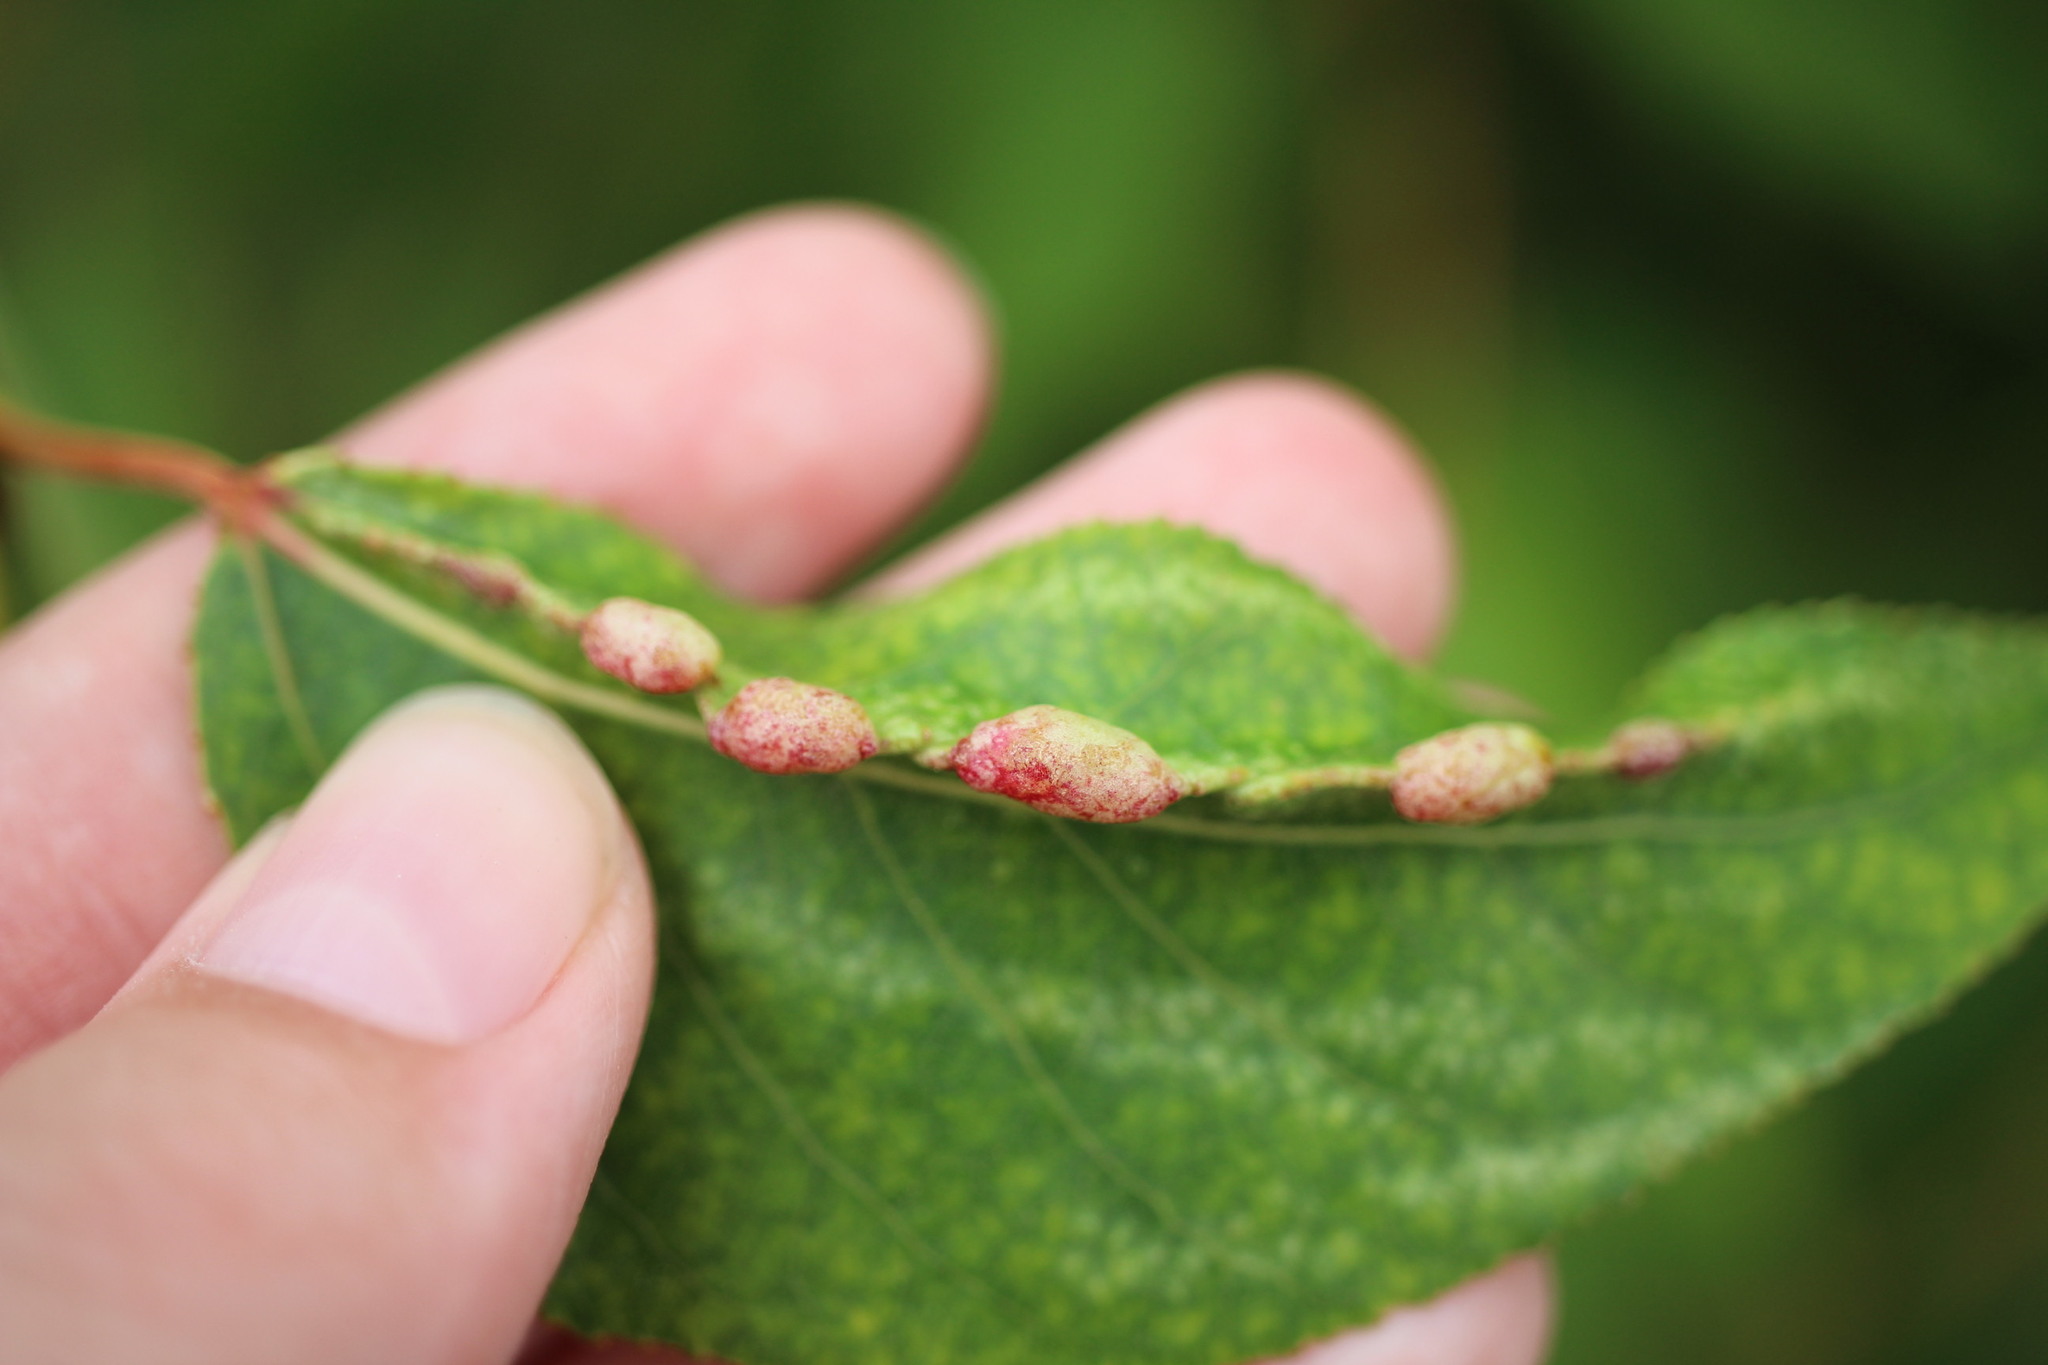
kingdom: Animalia
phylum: Arthropoda
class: Insecta
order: Hemiptera
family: Aphididae
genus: Thecabius
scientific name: Thecabius populimonilis
